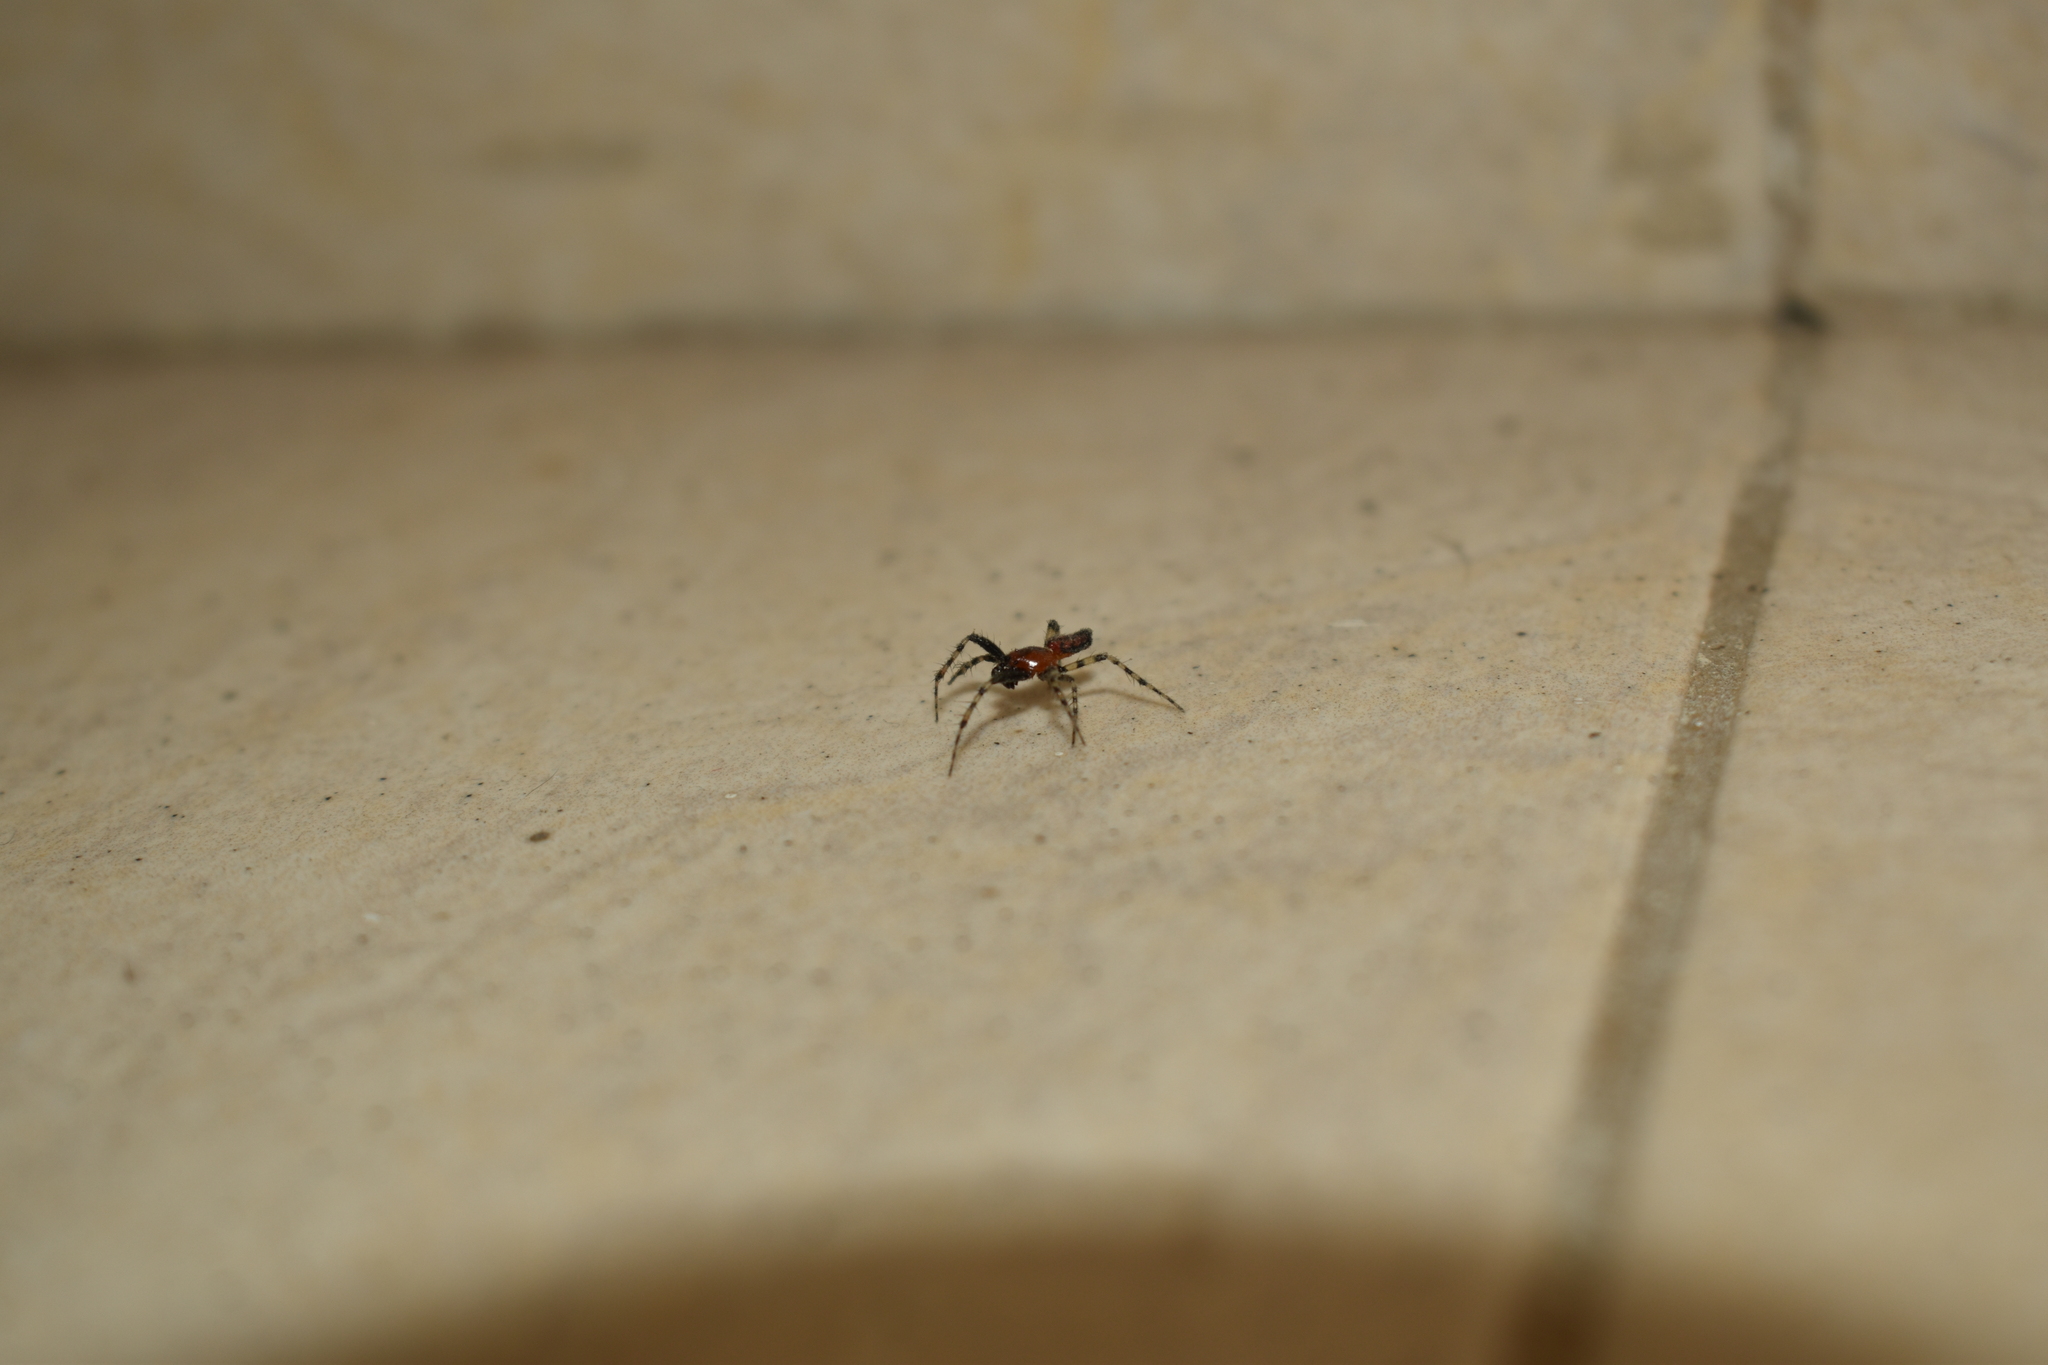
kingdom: Animalia
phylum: Arthropoda
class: Arachnida
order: Araneae
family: Araneidae
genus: Alpaida
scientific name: Alpaida gallardoi
